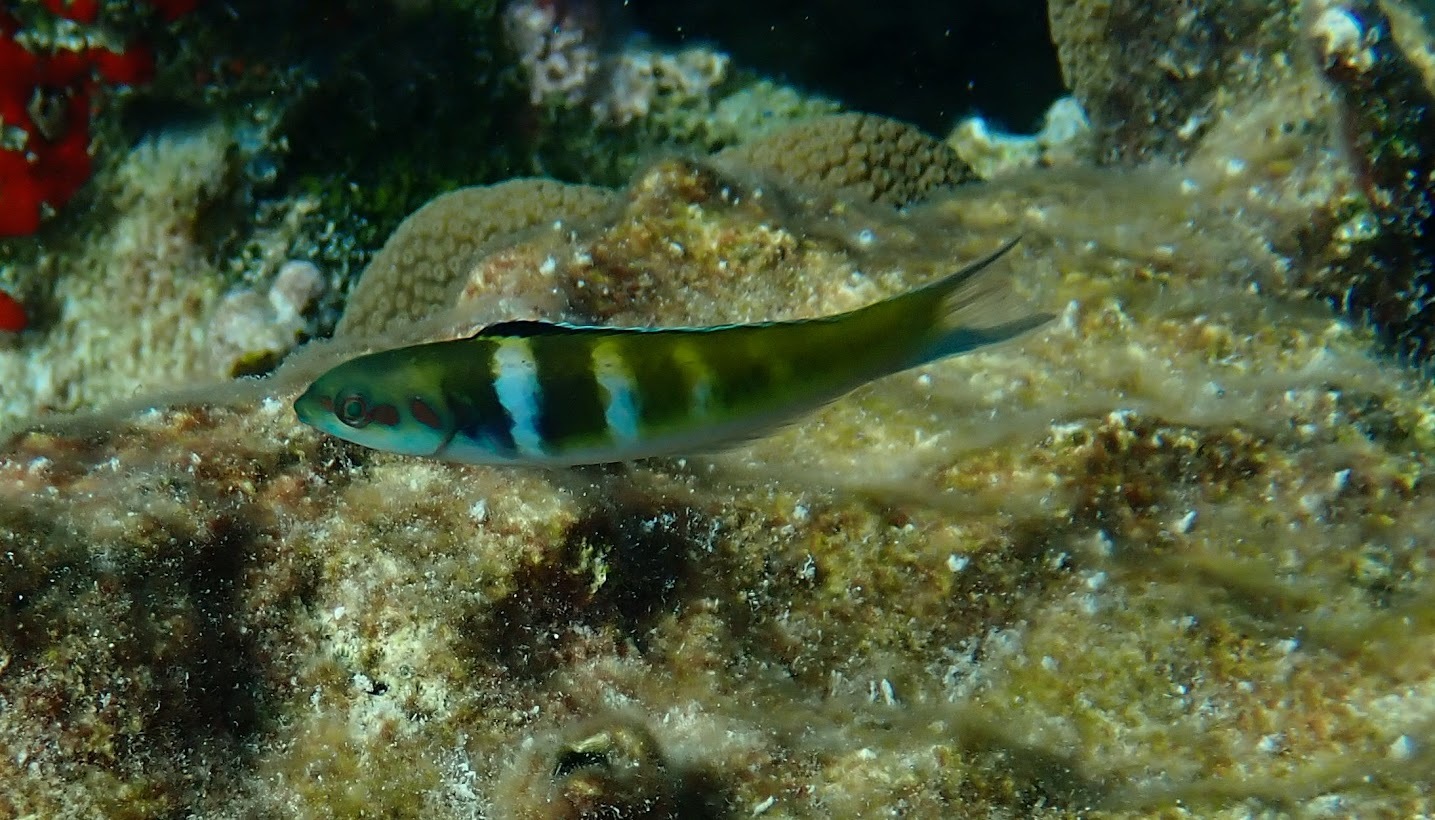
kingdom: Animalia
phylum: Chordata
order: Perciformes
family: Labridae
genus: Thalassoma
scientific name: Thalassoma bifasciatum
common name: Bluehead wrasse
